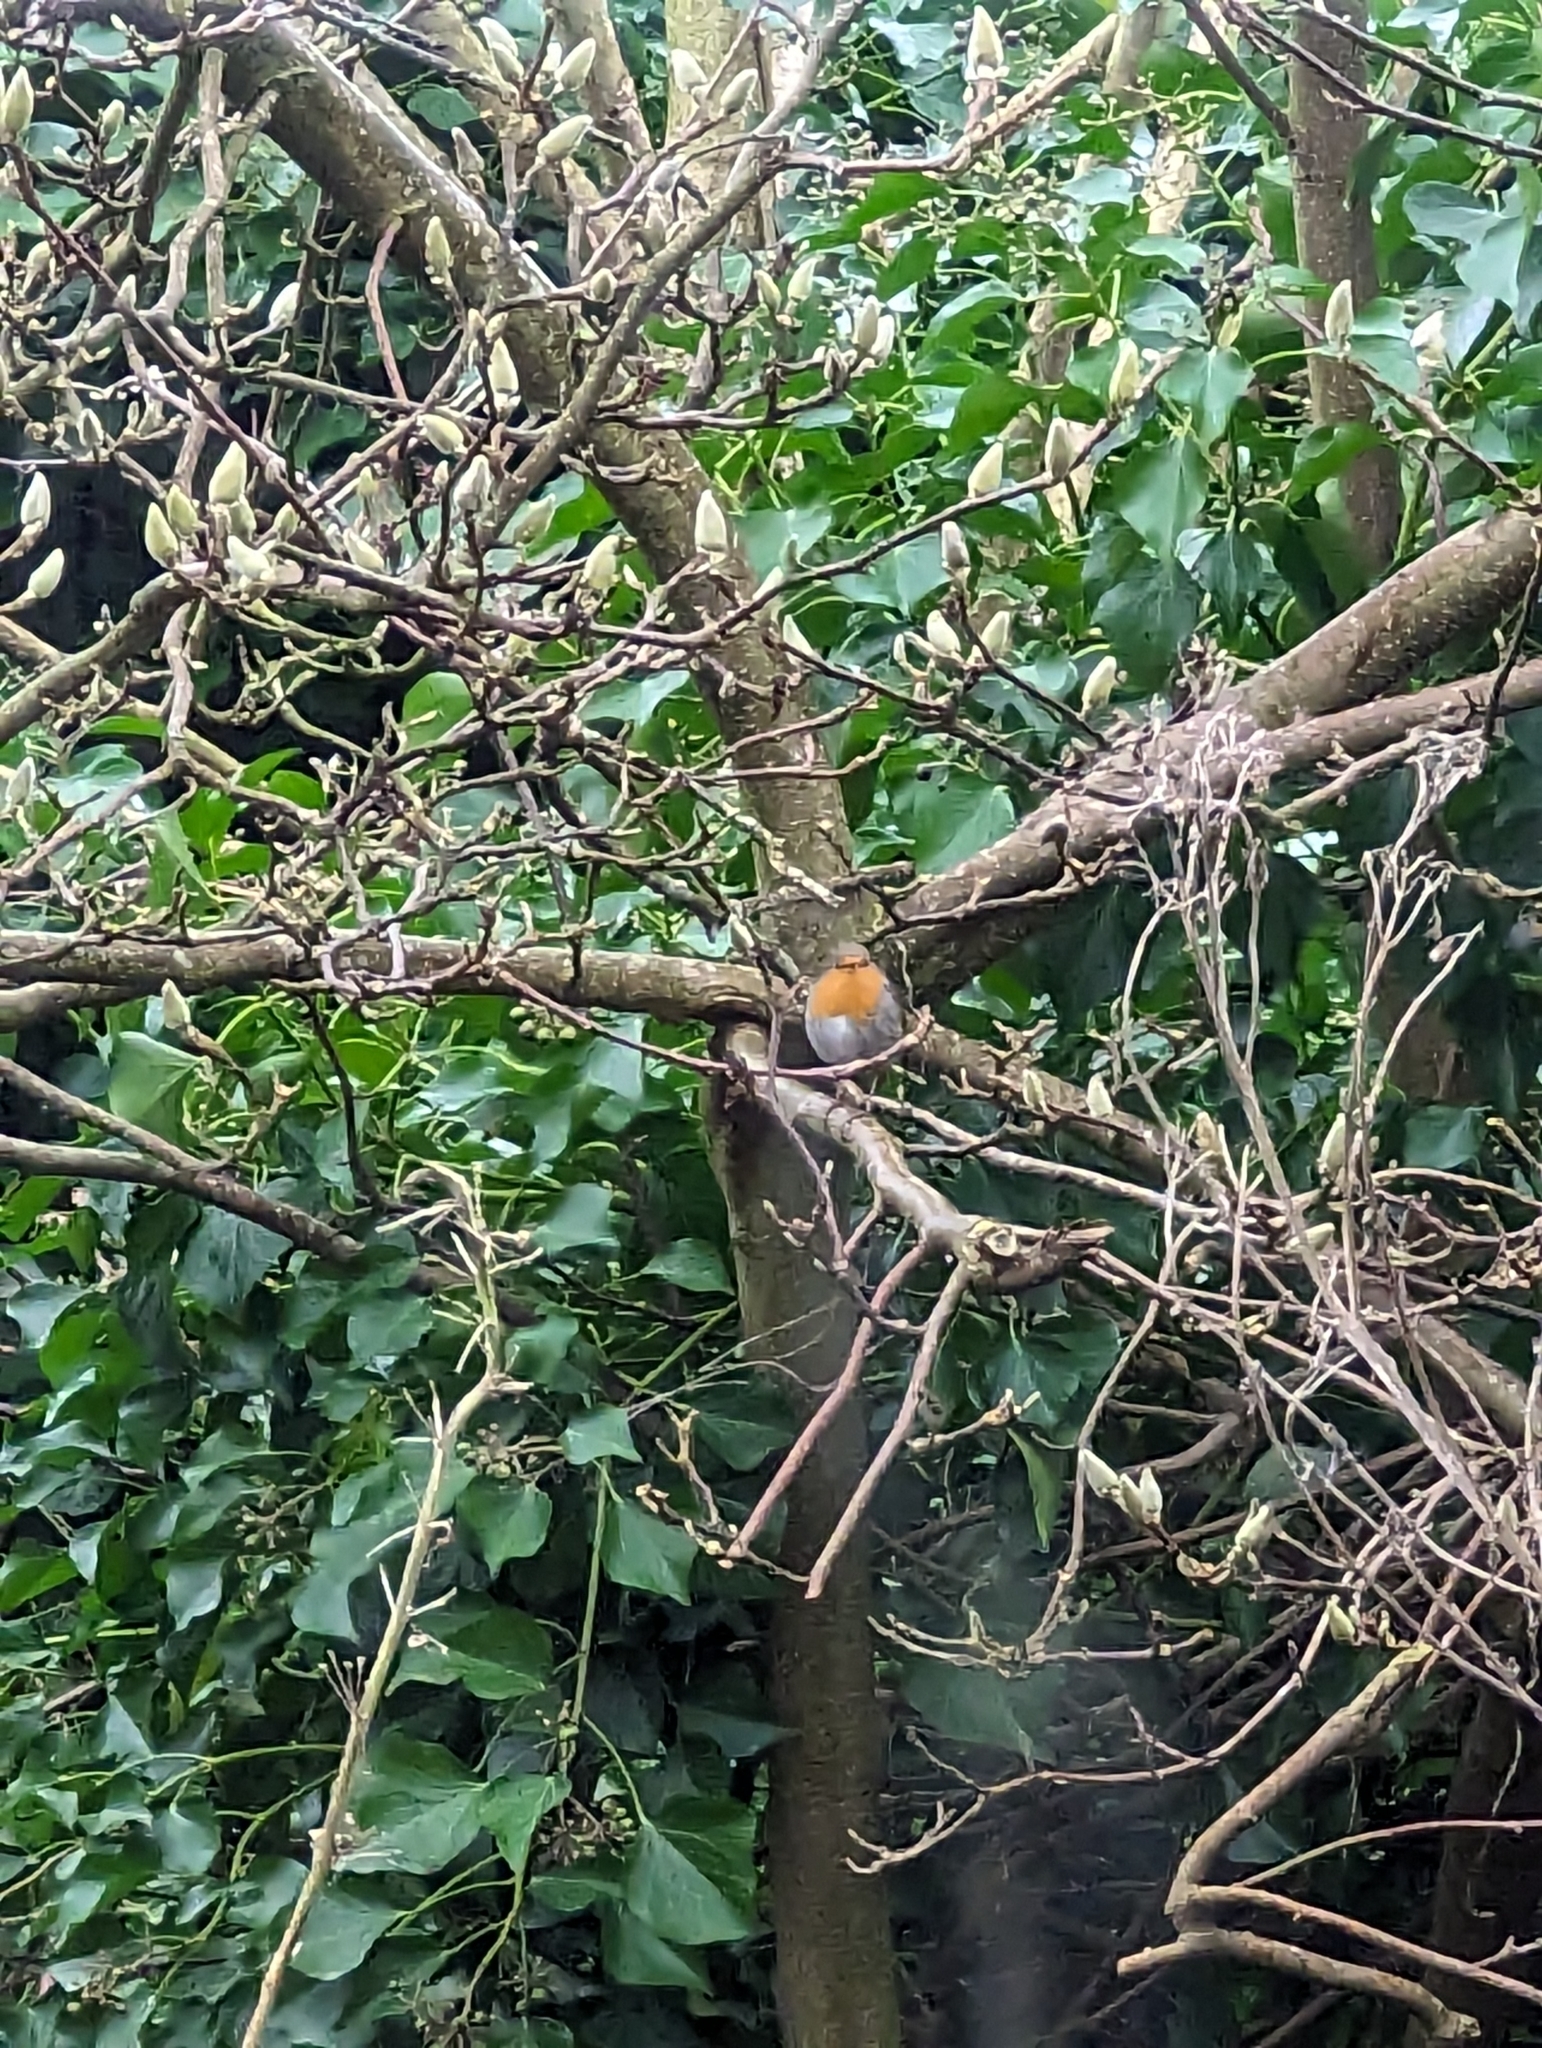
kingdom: Animalia
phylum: Chordata
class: Aves
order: Passeriformes
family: Muscicapidae
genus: Erithacus
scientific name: Erithacus rubecula
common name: European robin
